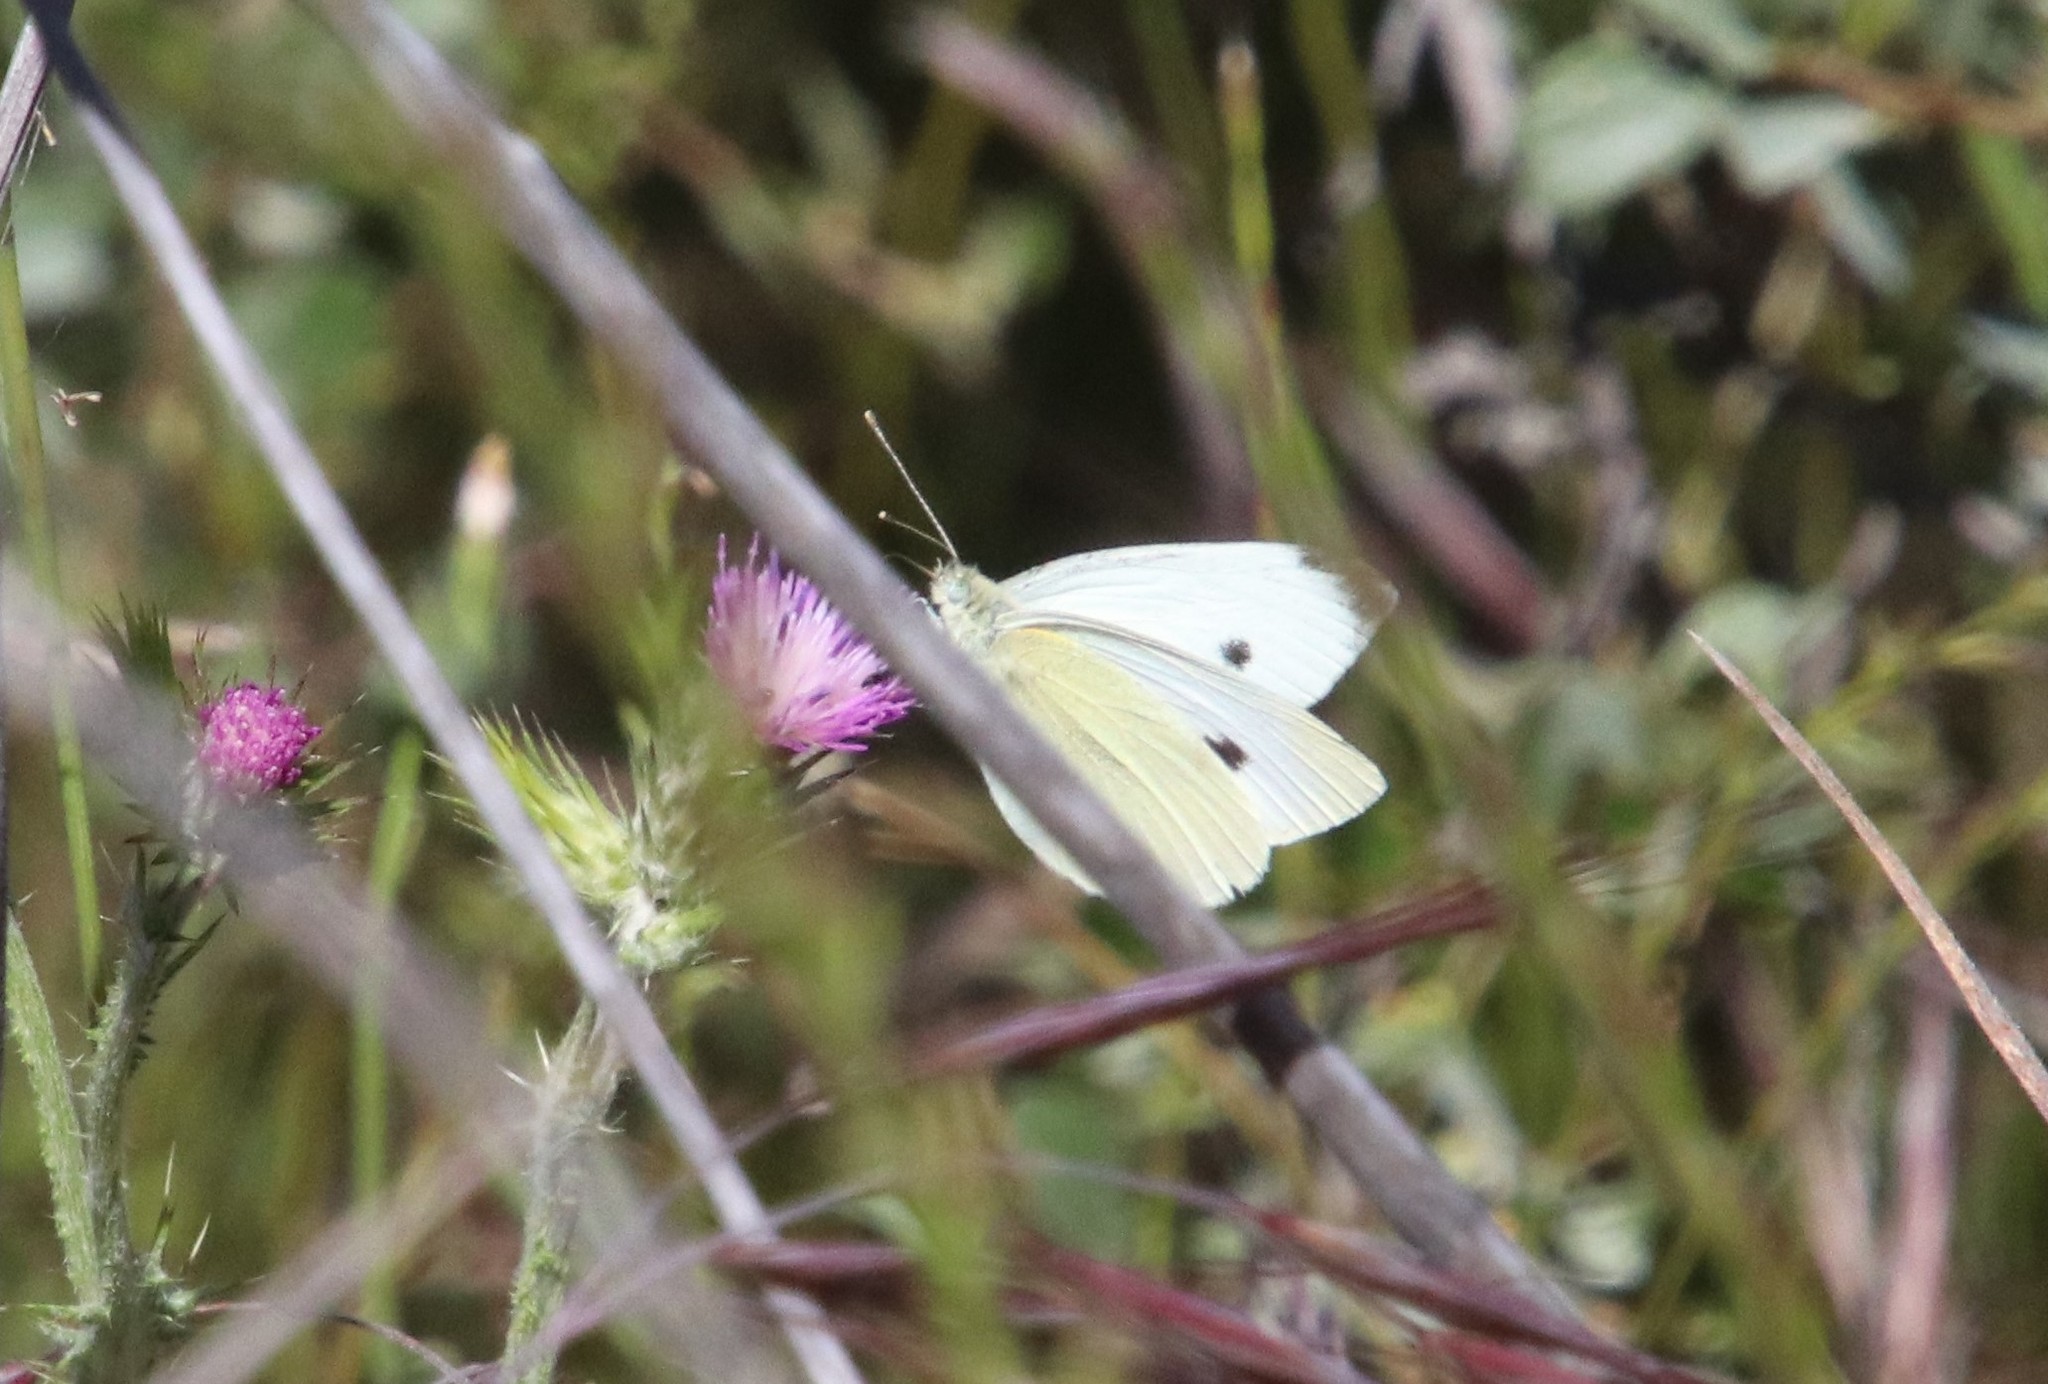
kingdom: Animalia
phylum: Arthropoda
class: Insecta
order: Lepidoptera
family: Pieridae
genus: Pieris
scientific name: Pieris rapae
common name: Small white
